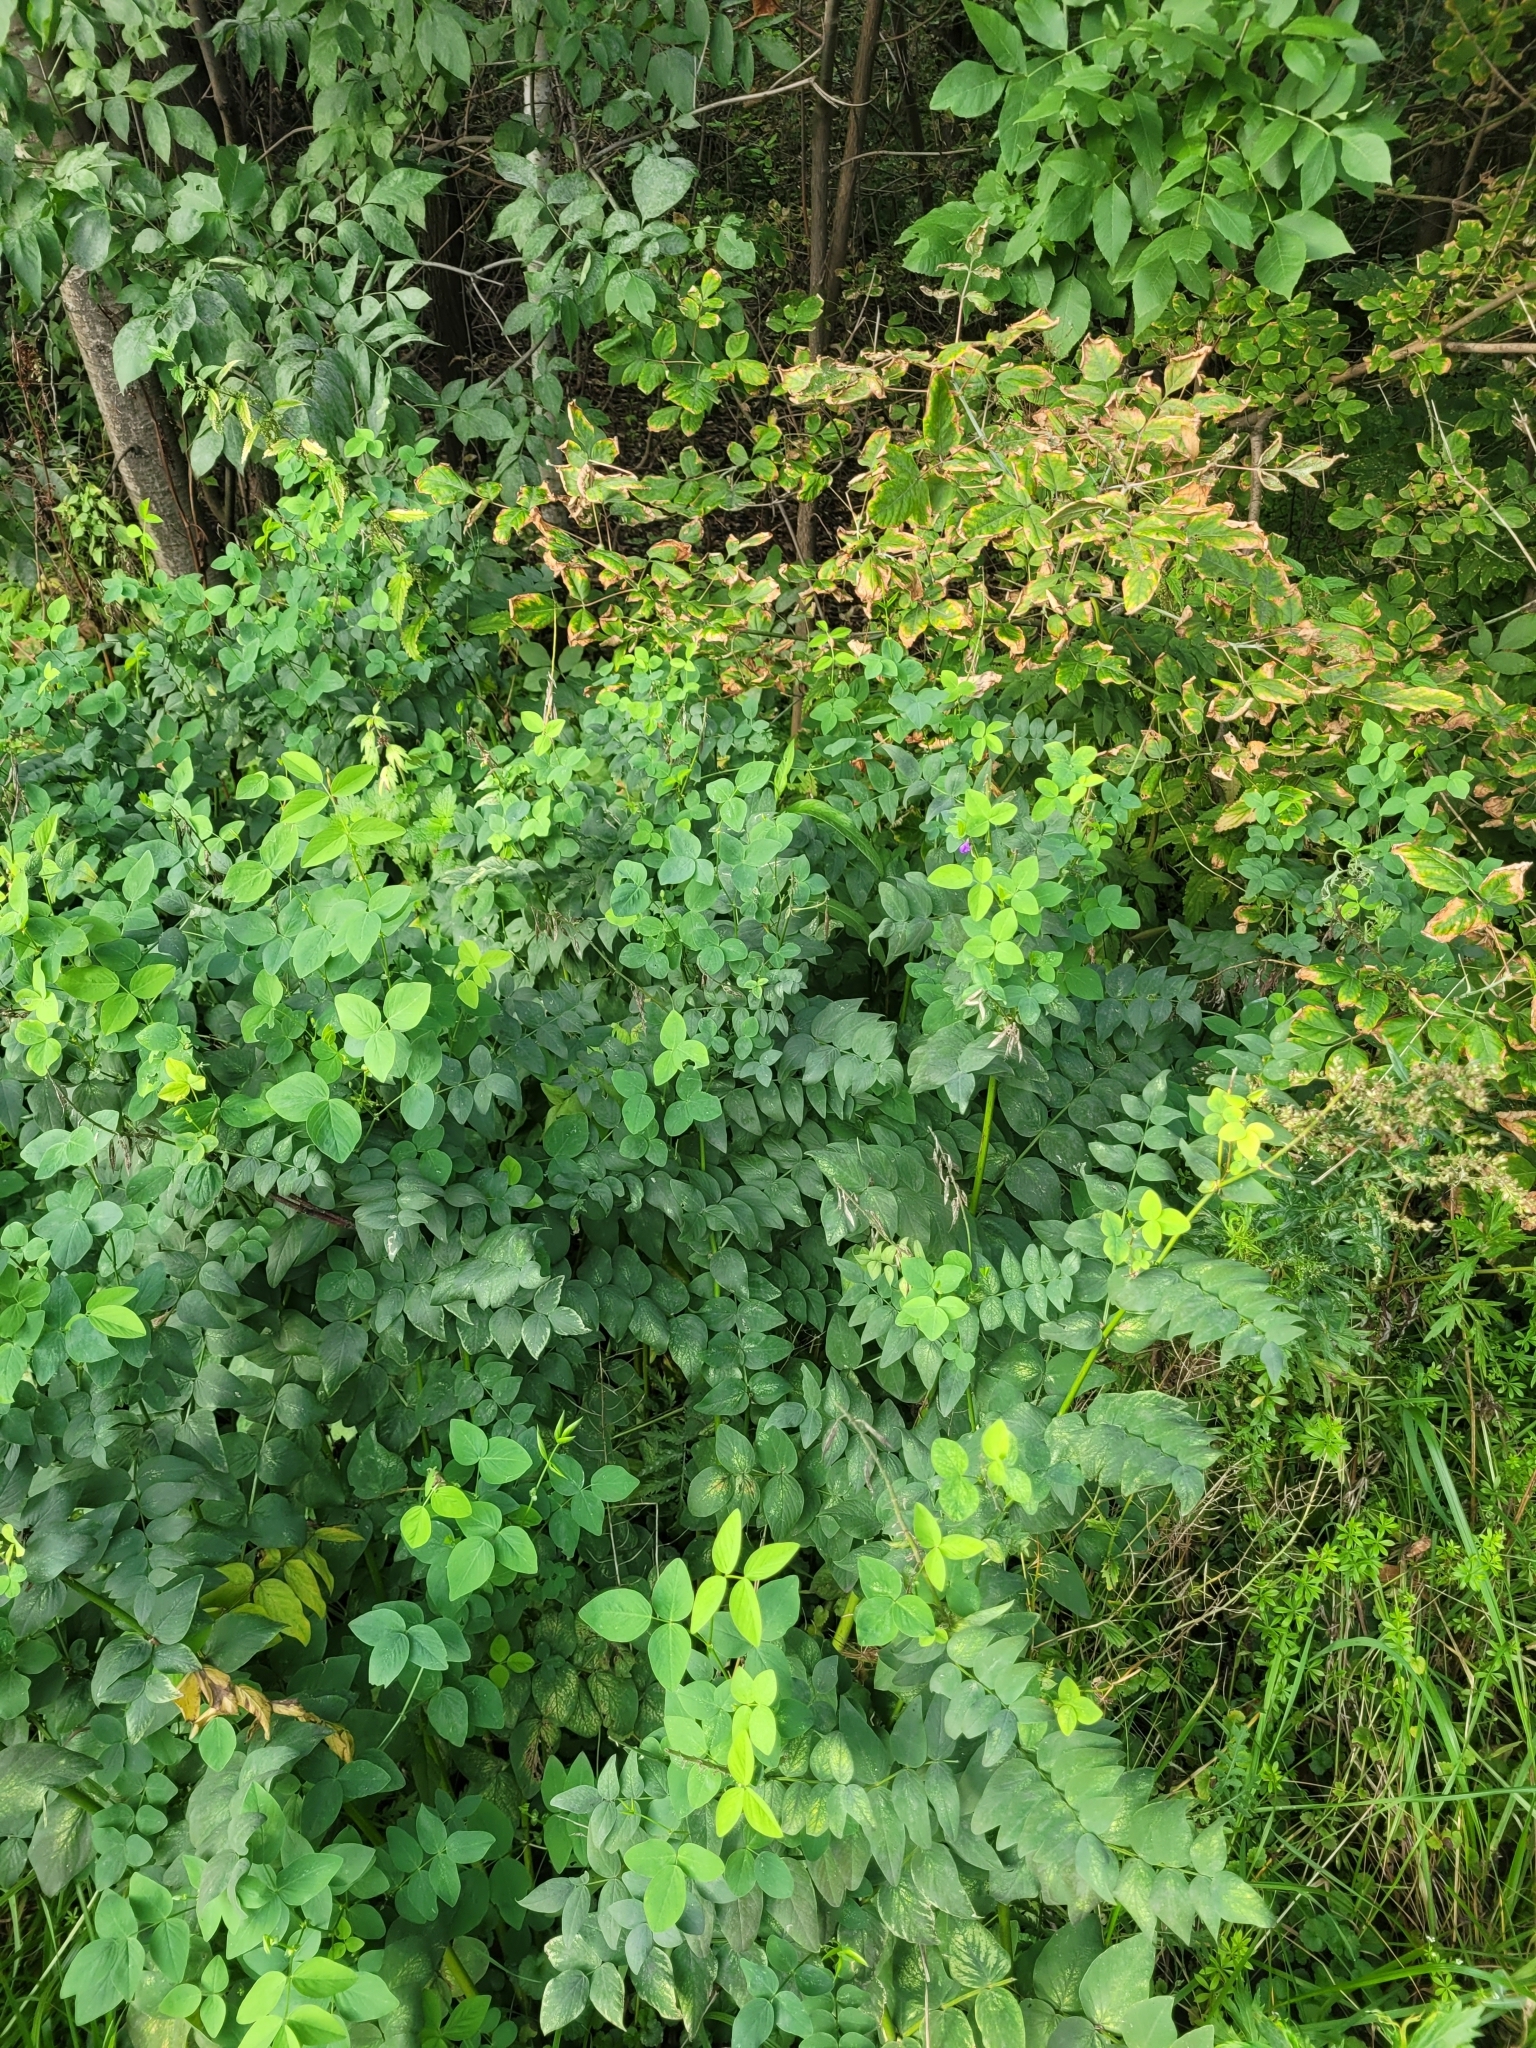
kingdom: Plantae
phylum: Tracheophyta
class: Magnoliopsida
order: Fabales
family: Fabaceae
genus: Galega
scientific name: Galega orientalis
